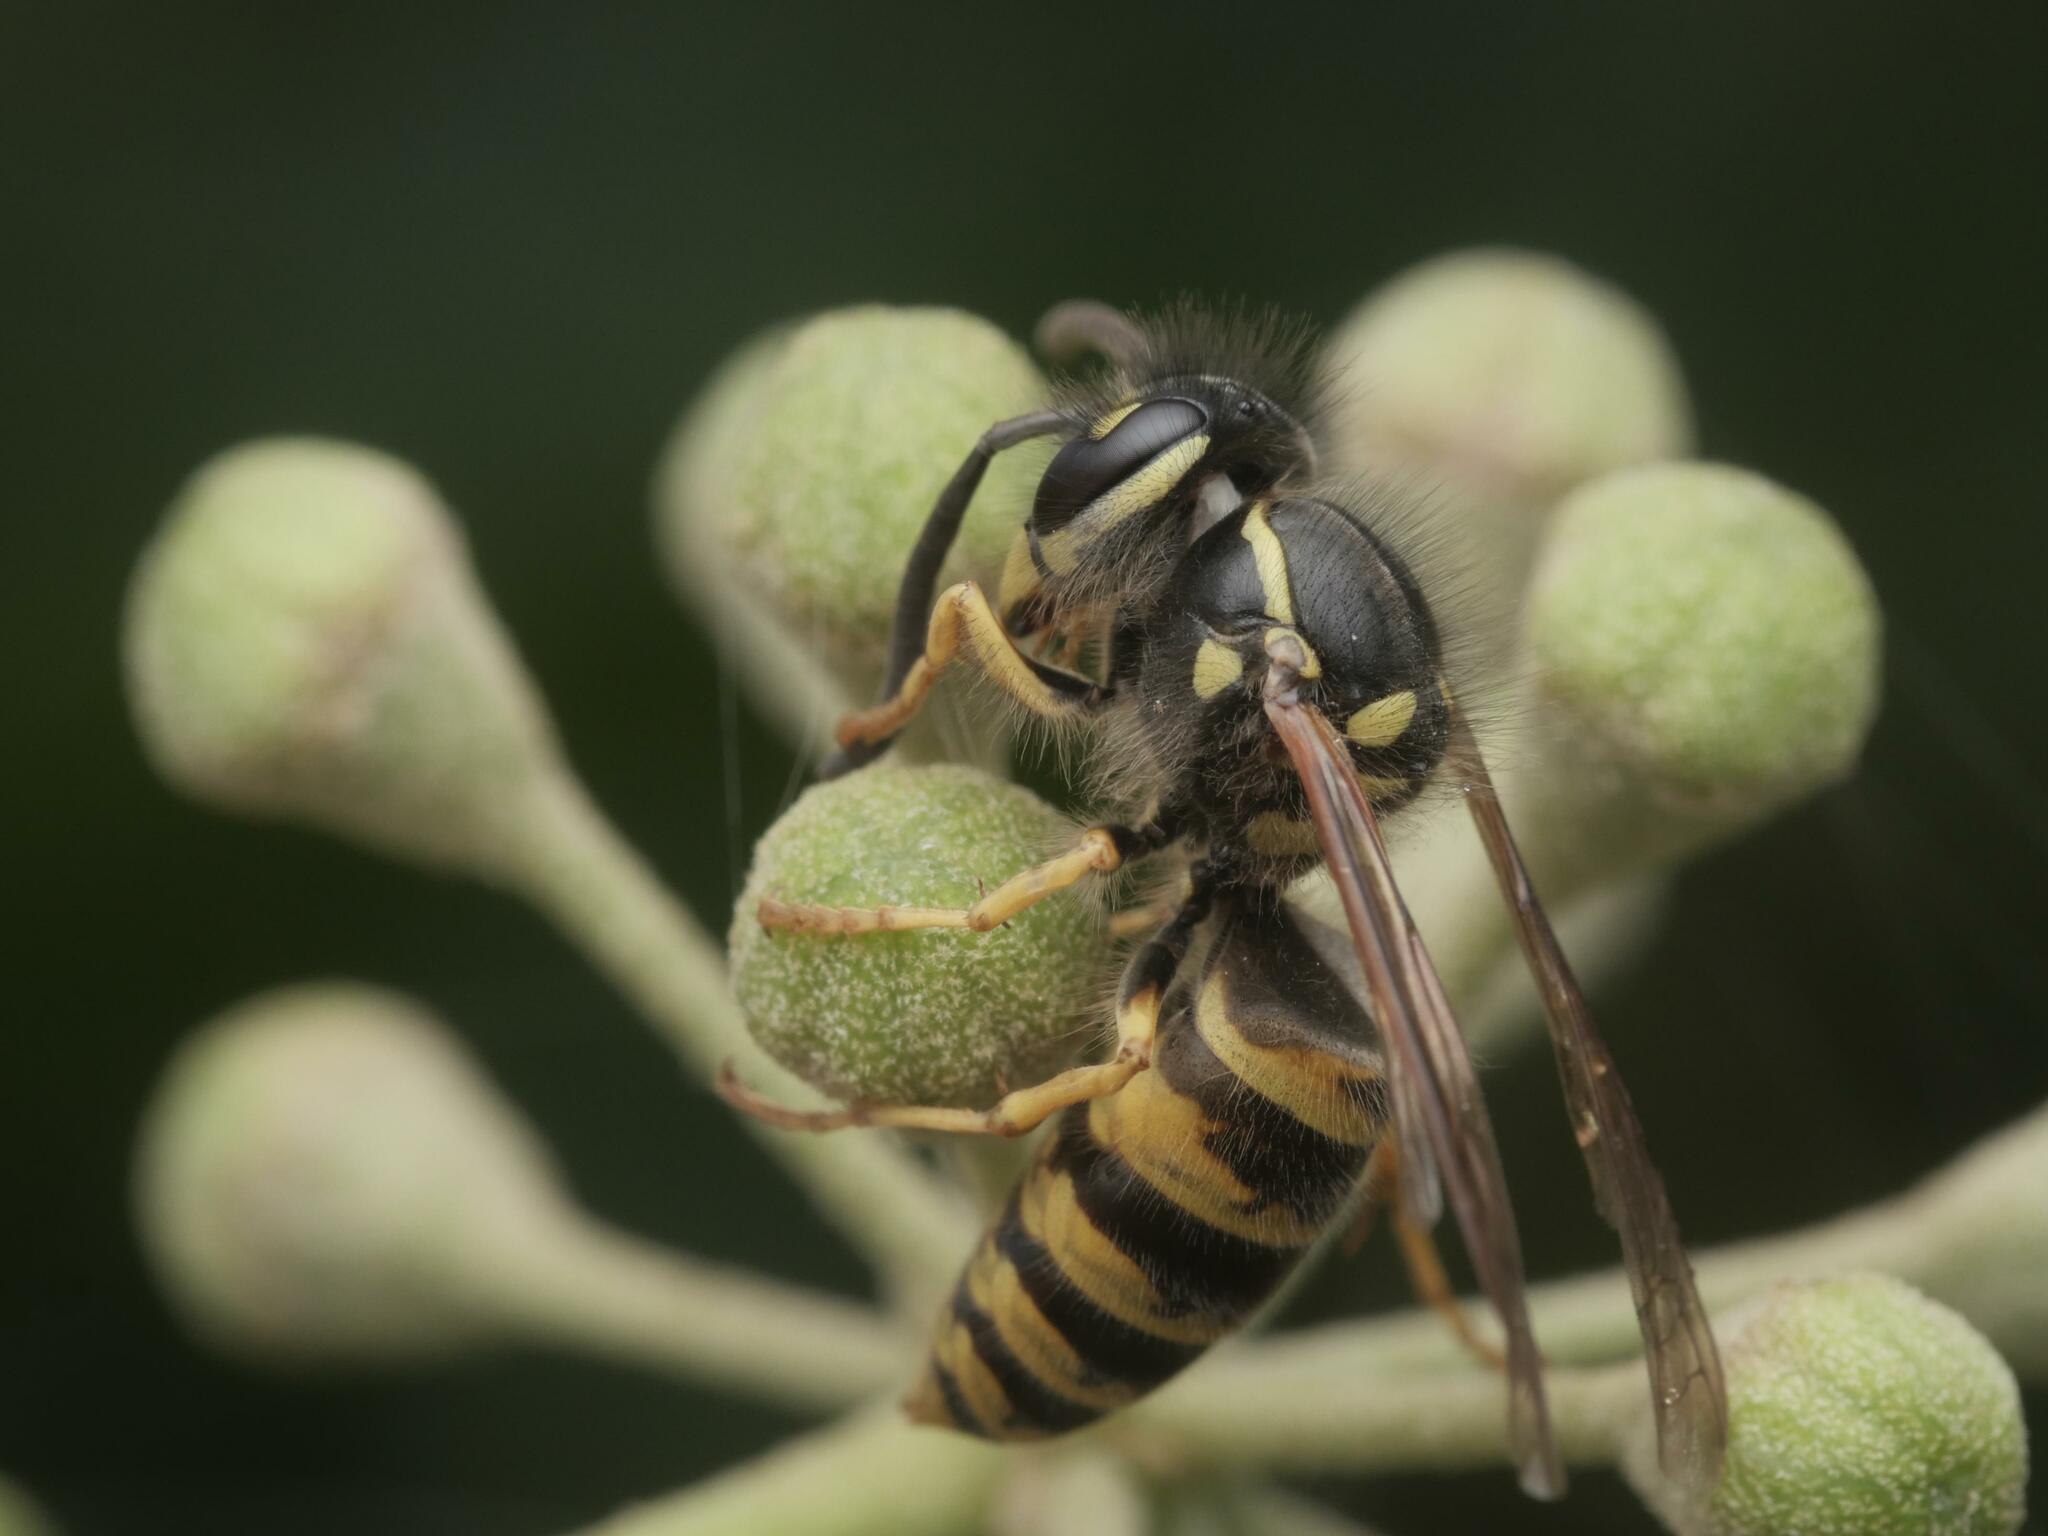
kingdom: Animalia
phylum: Arthropoda
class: Insecta
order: Hymenoptera
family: Vespidae
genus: Vespula
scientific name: Vespula germanica
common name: German wasp
